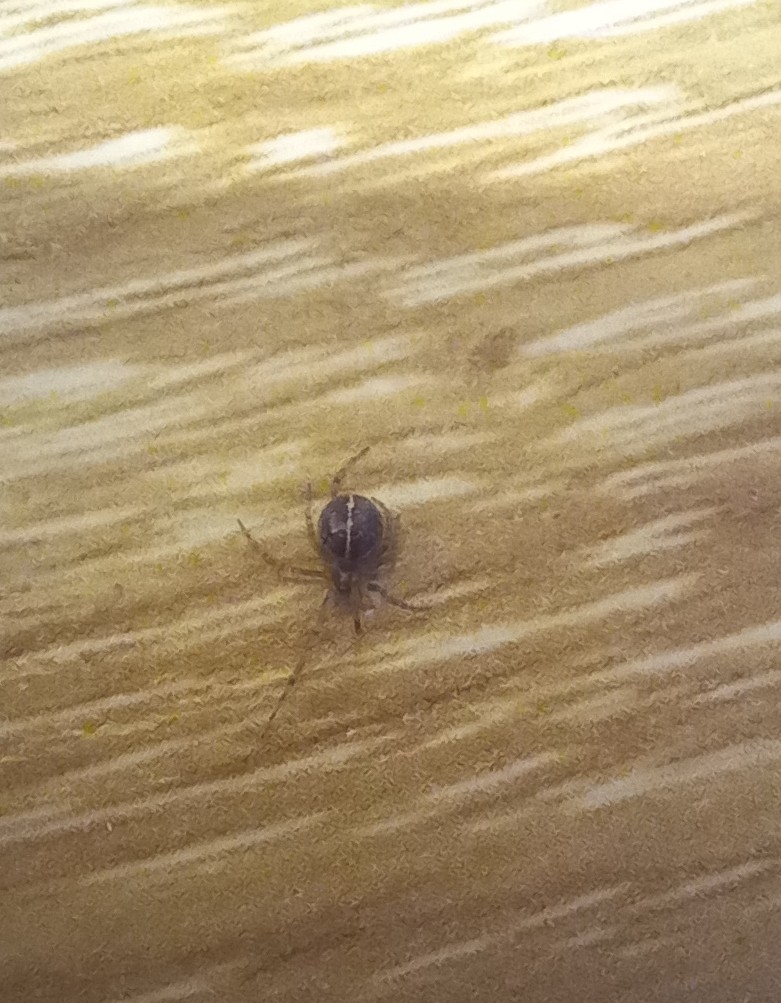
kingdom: Animalia
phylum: Arthropoda
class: Arachnida
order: Araneae
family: Theridiidae
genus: Steatoda
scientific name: Steatoda castanea
